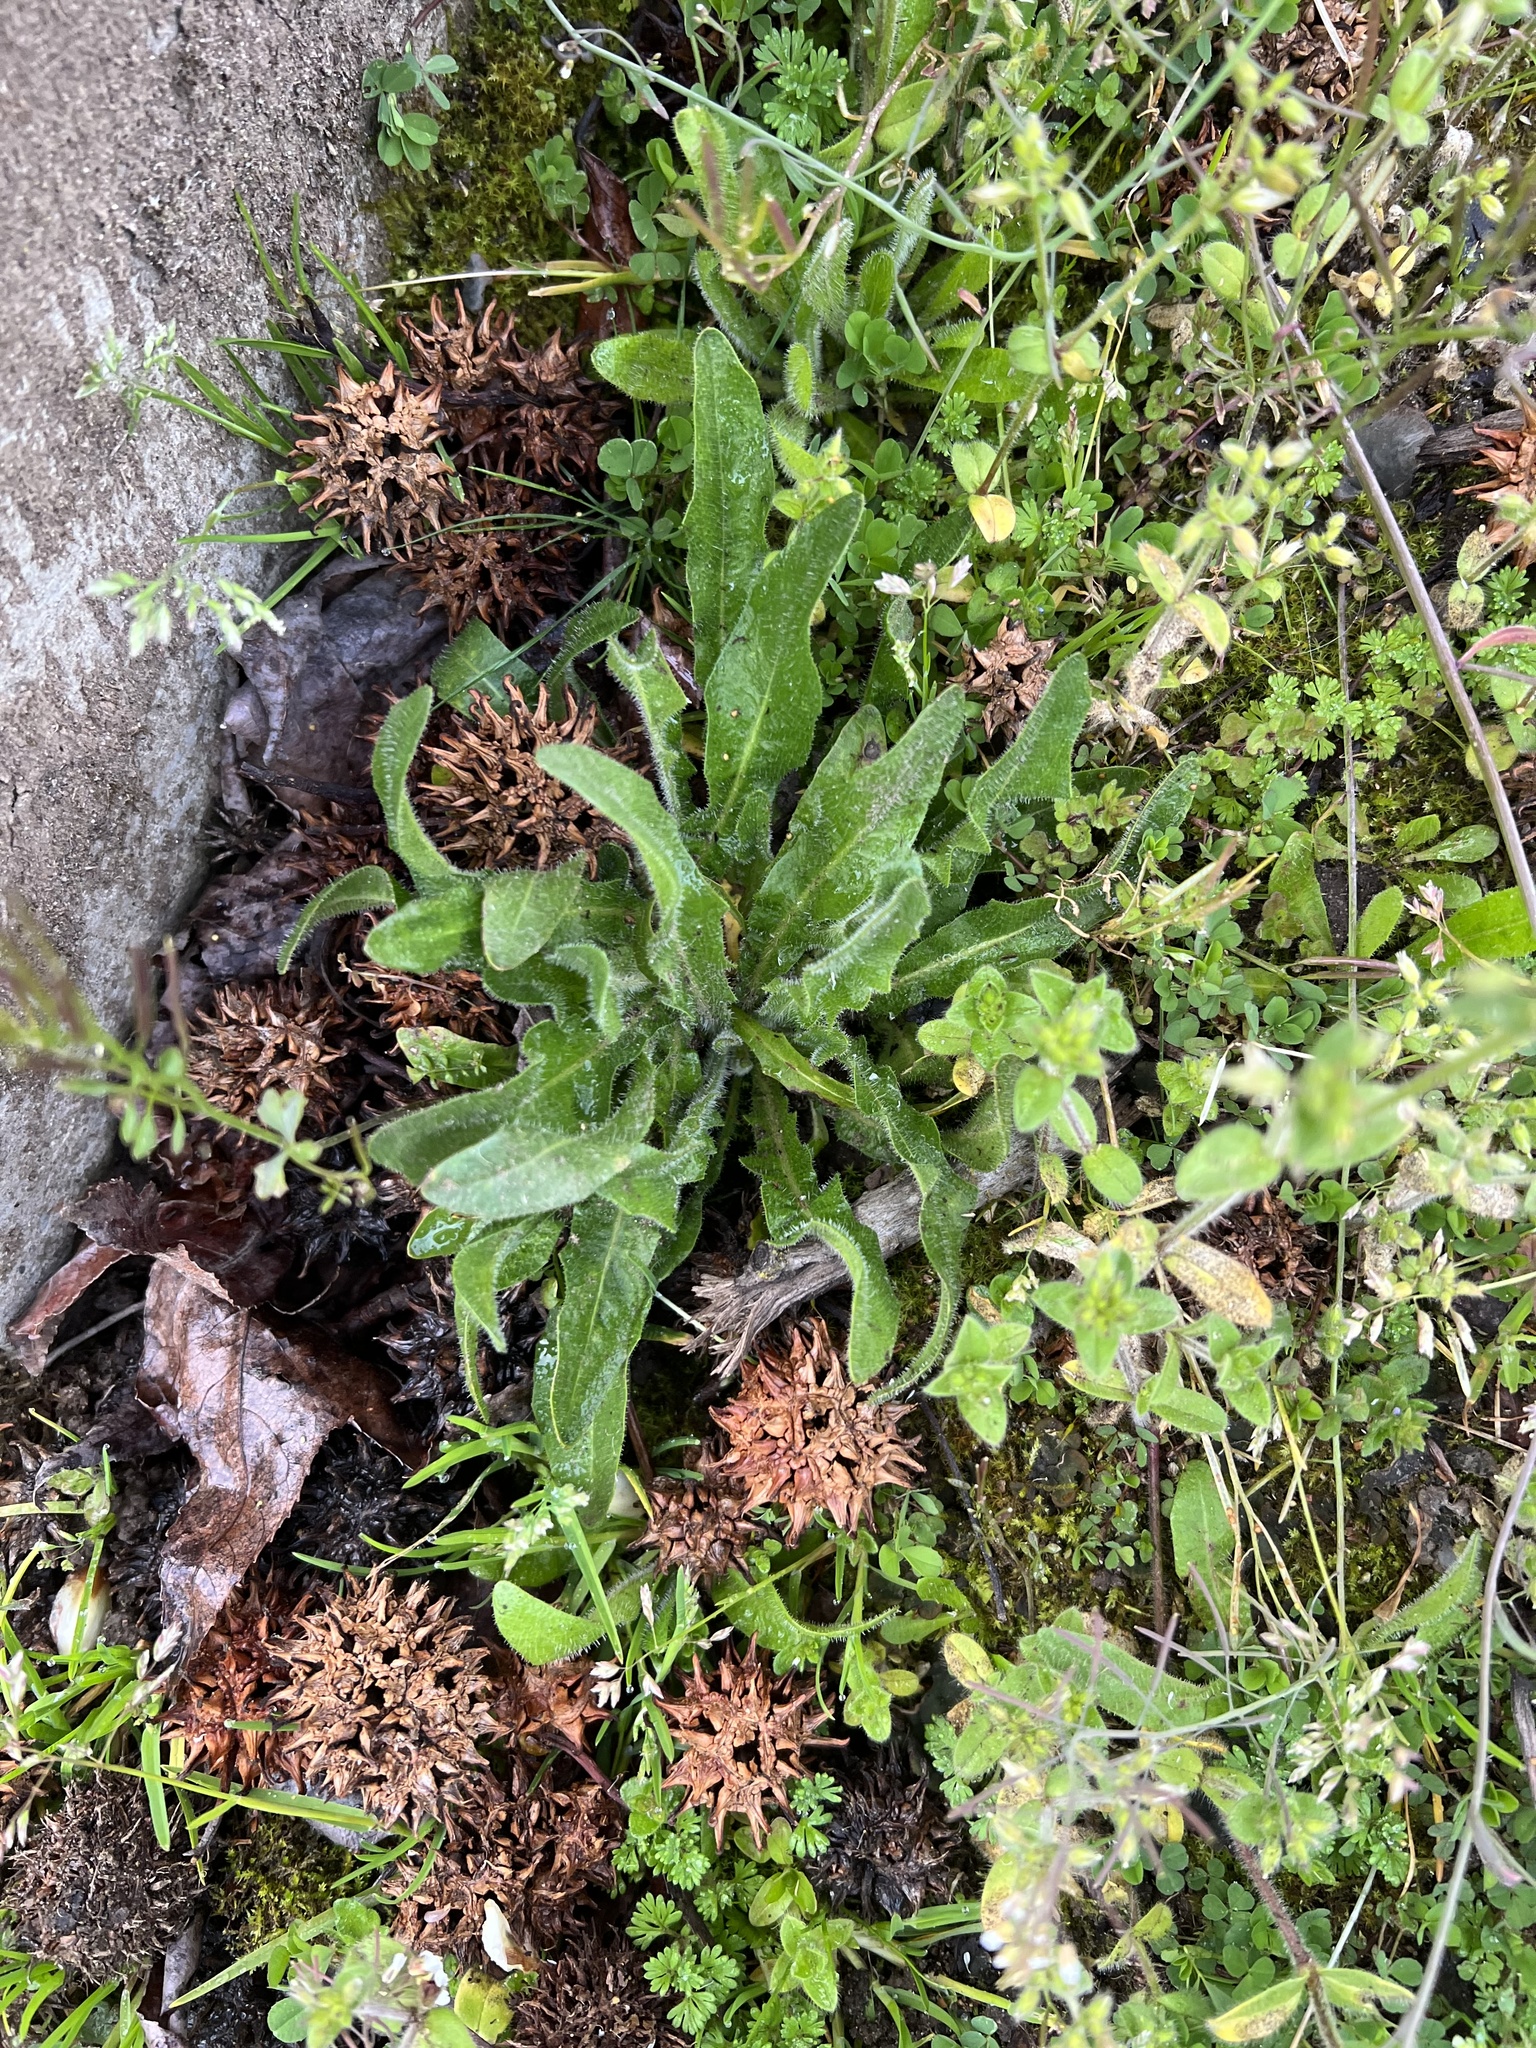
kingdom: Plantae
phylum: Tracheophyta
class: Magnoliopsida
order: Asterales
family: Asteraceae
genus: Hypochaeris
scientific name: Hypochaeris radicata
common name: Flatweed
